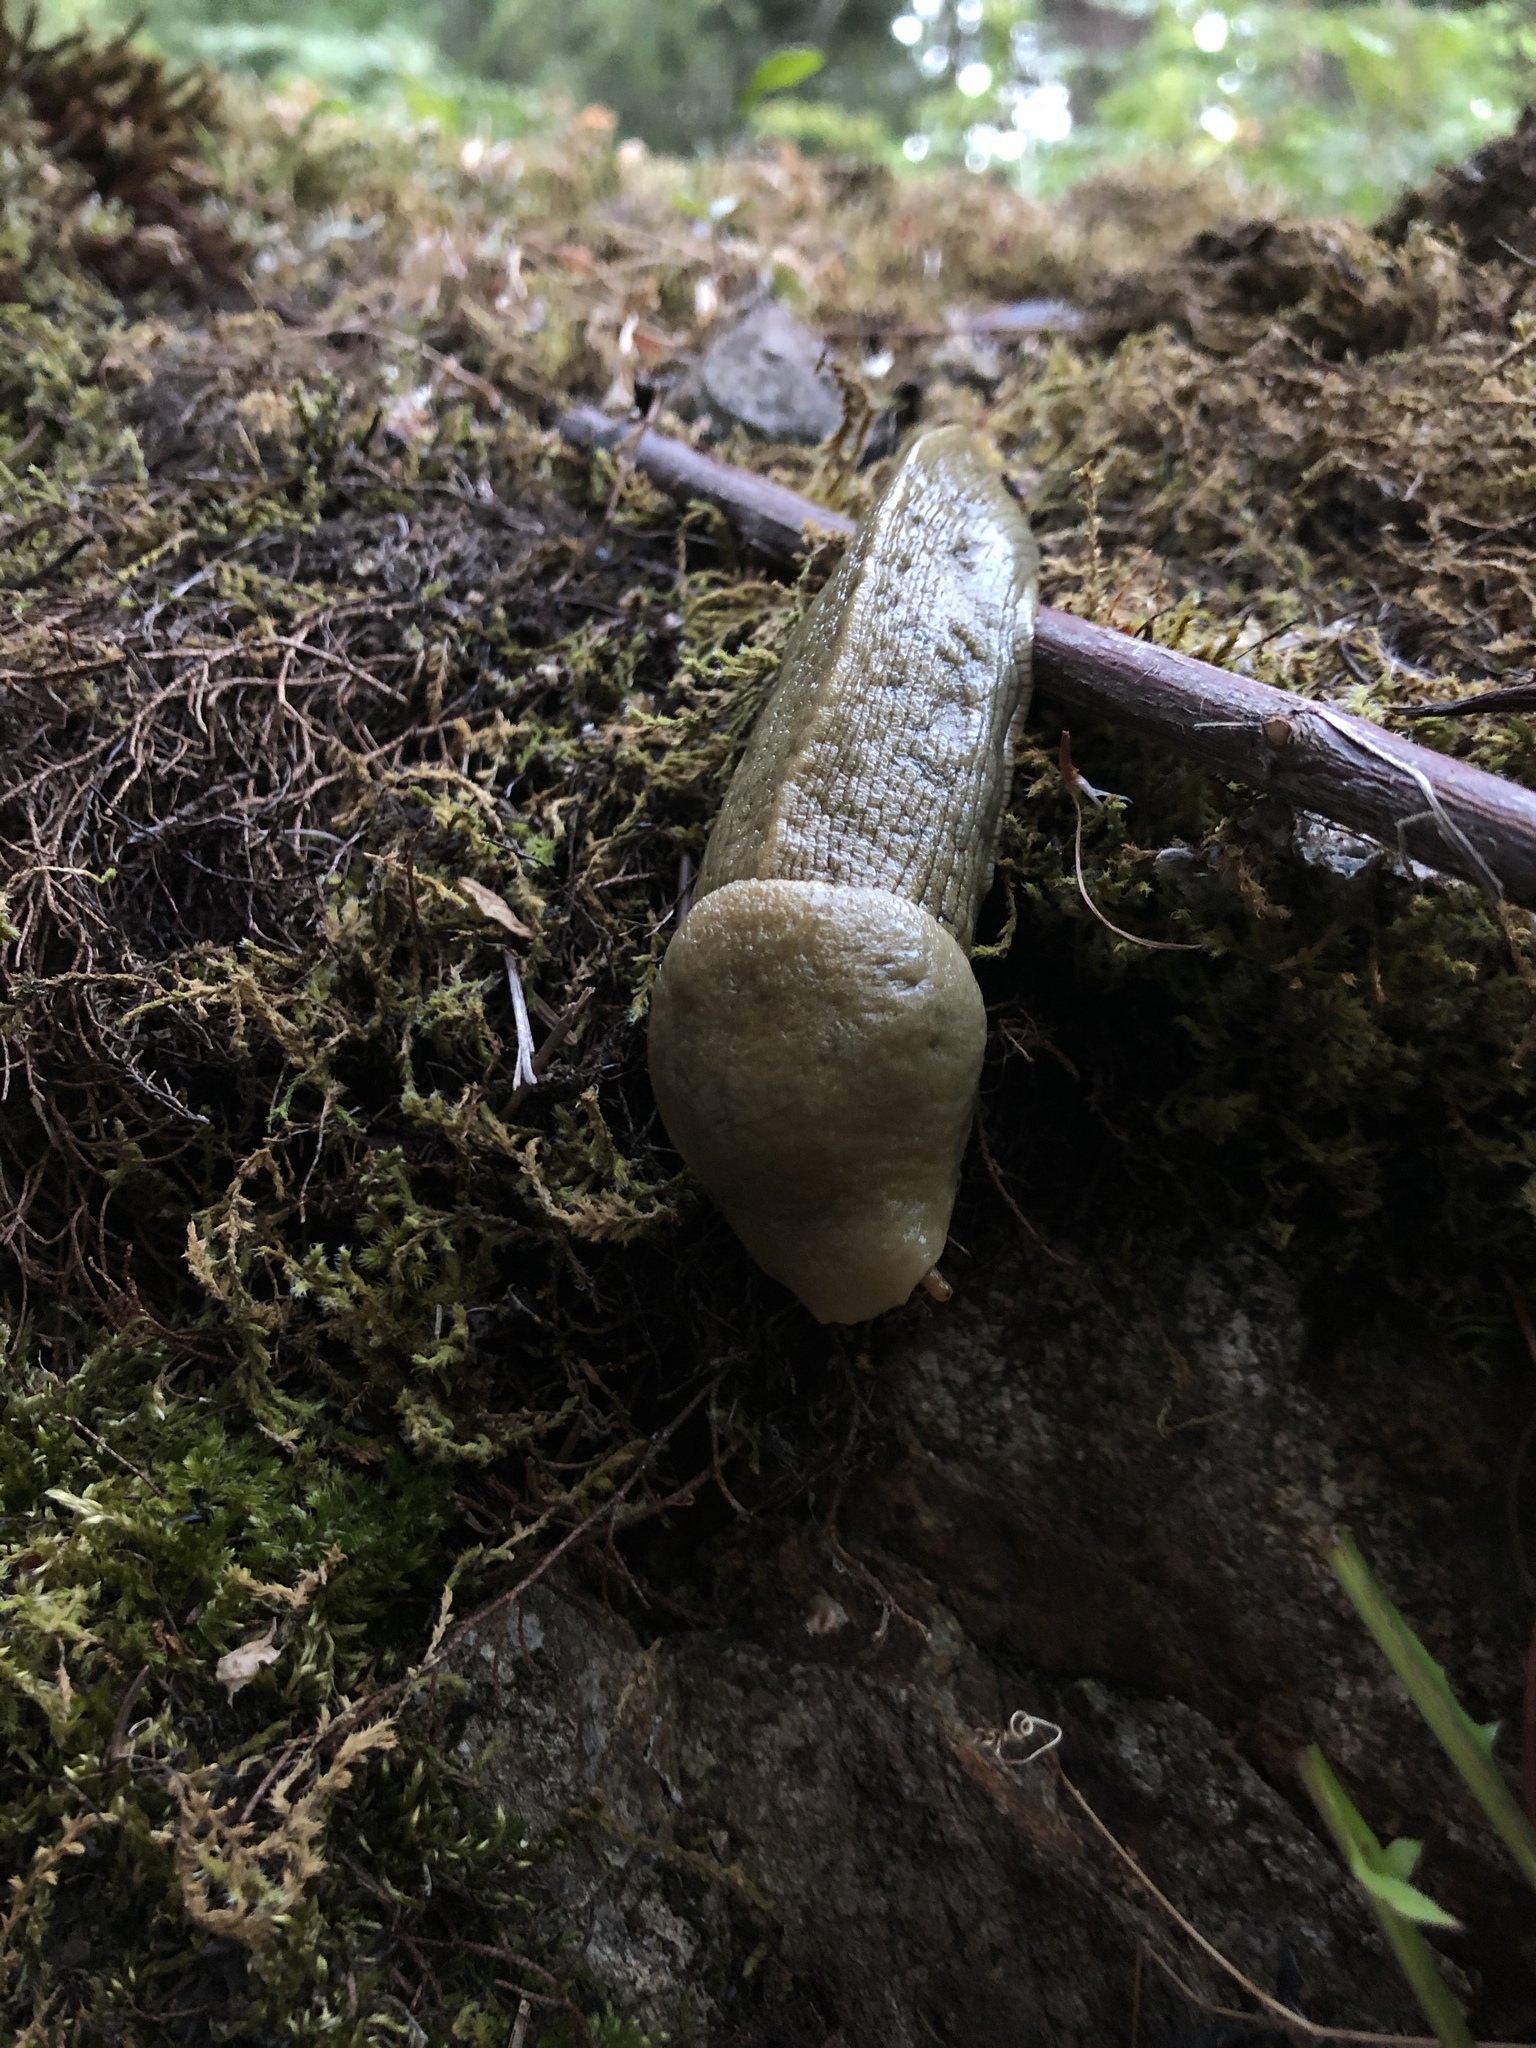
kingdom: Animalia
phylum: Mollusca
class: Gastropoda
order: Stylommatophora
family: Ariolimacidae
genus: Ariolimax
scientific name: Ariolimax columbianus
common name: Pacific banana slug
